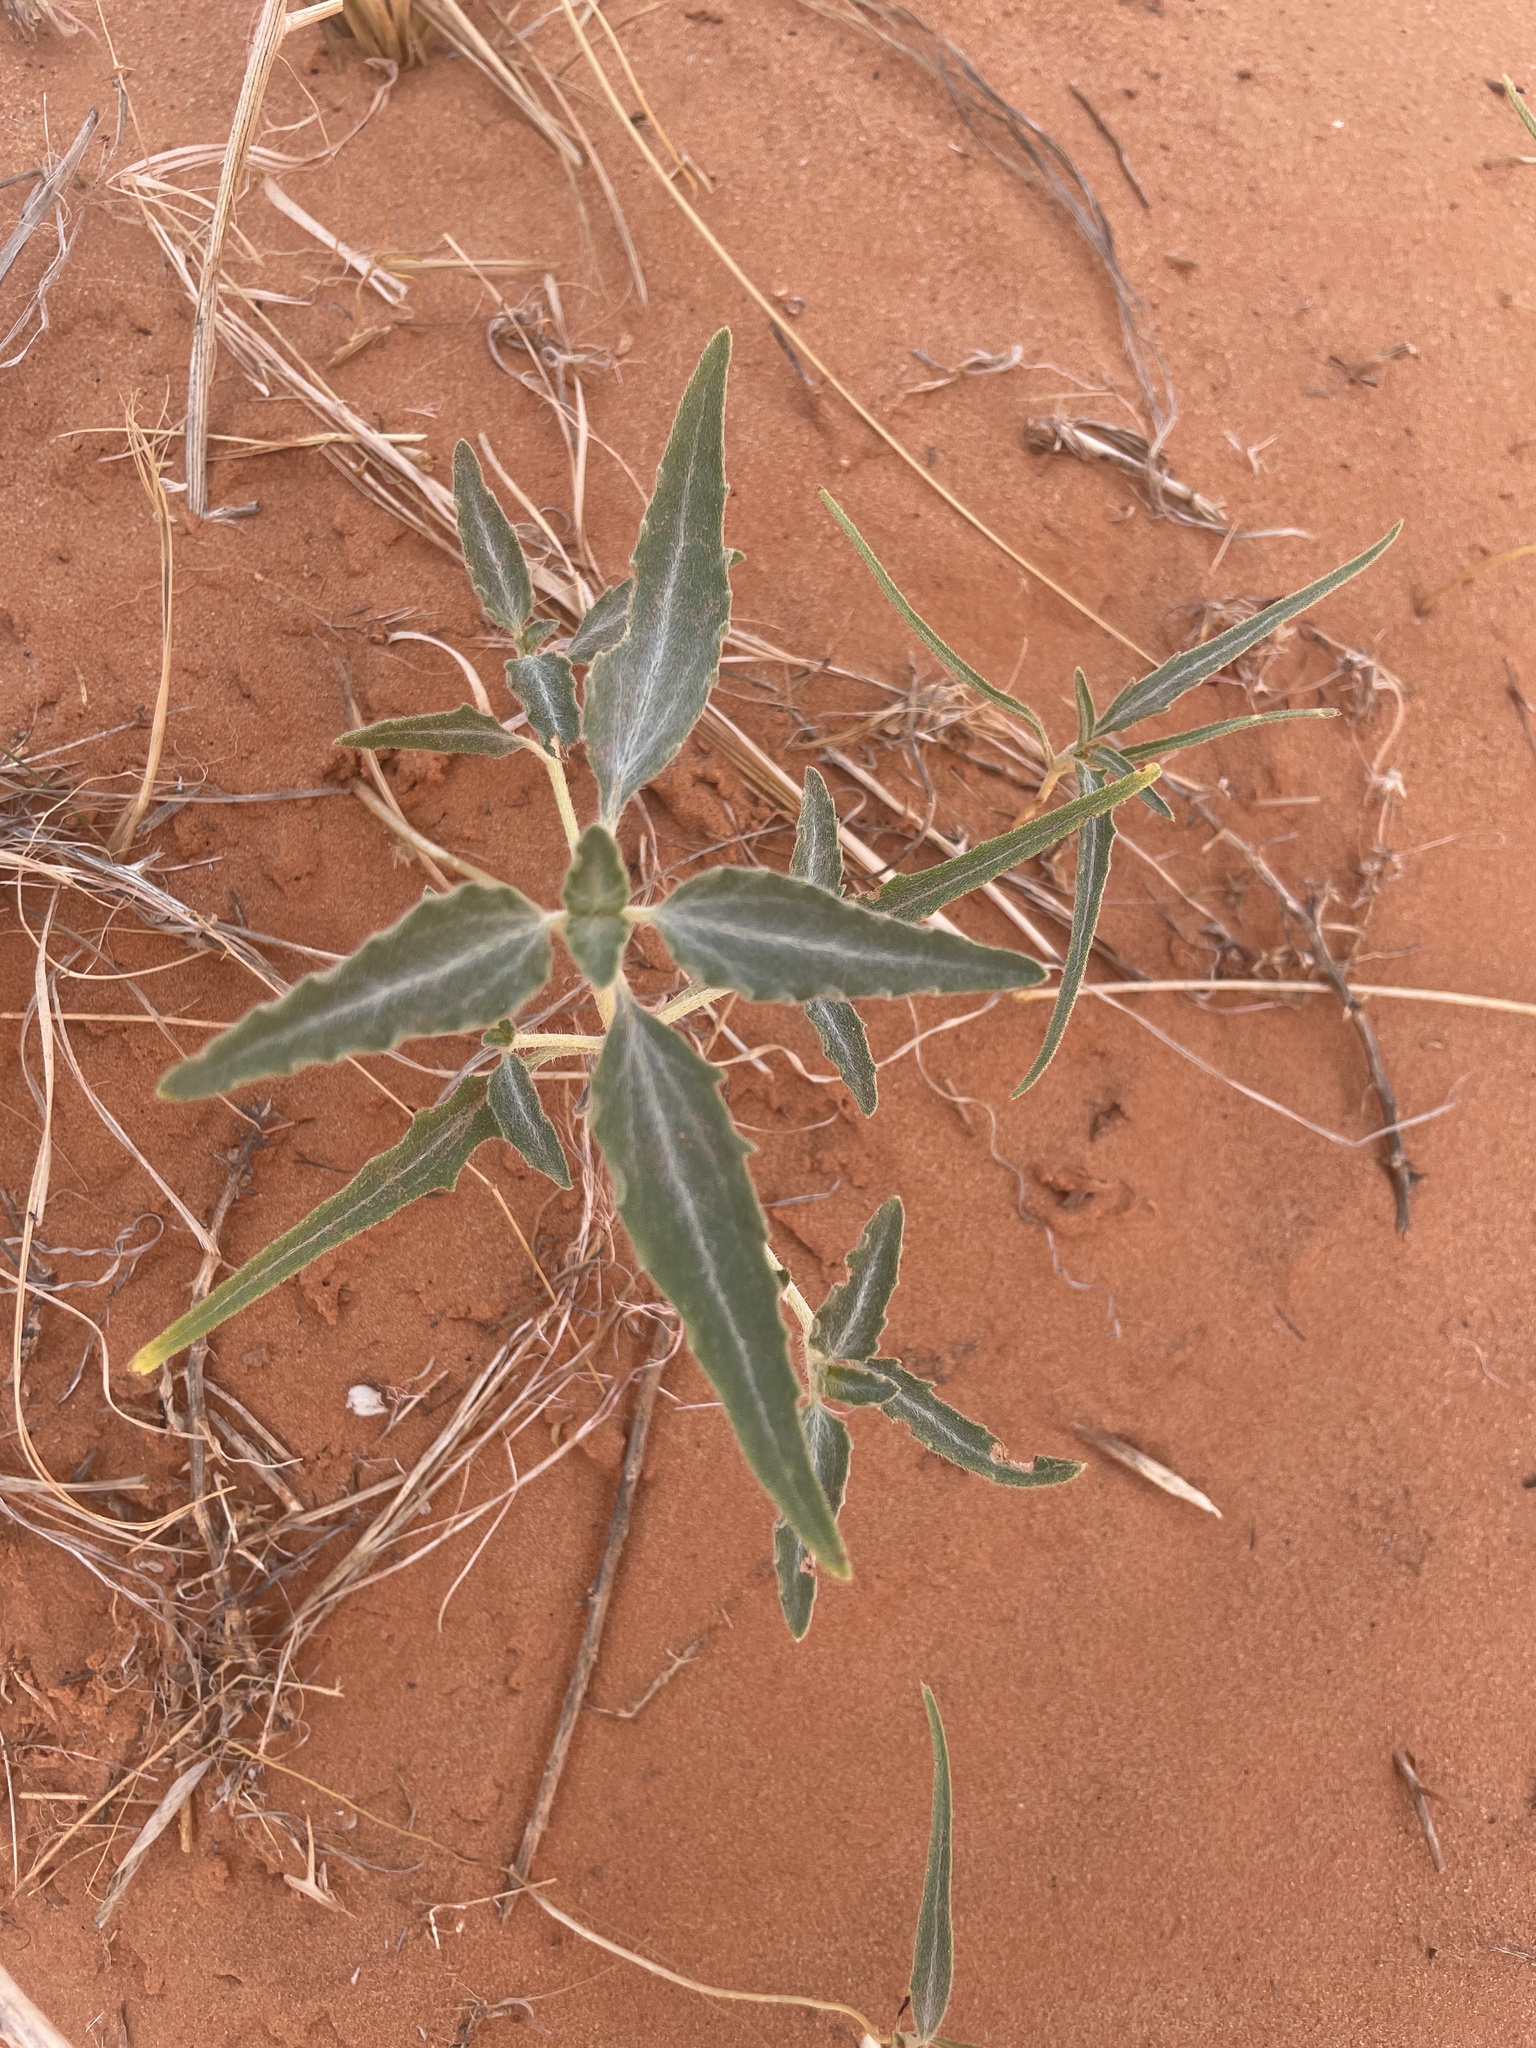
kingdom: Plantae
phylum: Tracheophyta
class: Magnoliopsida
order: Asterales
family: Asteraceae
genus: Dicoria
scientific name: Dicoria canescens
